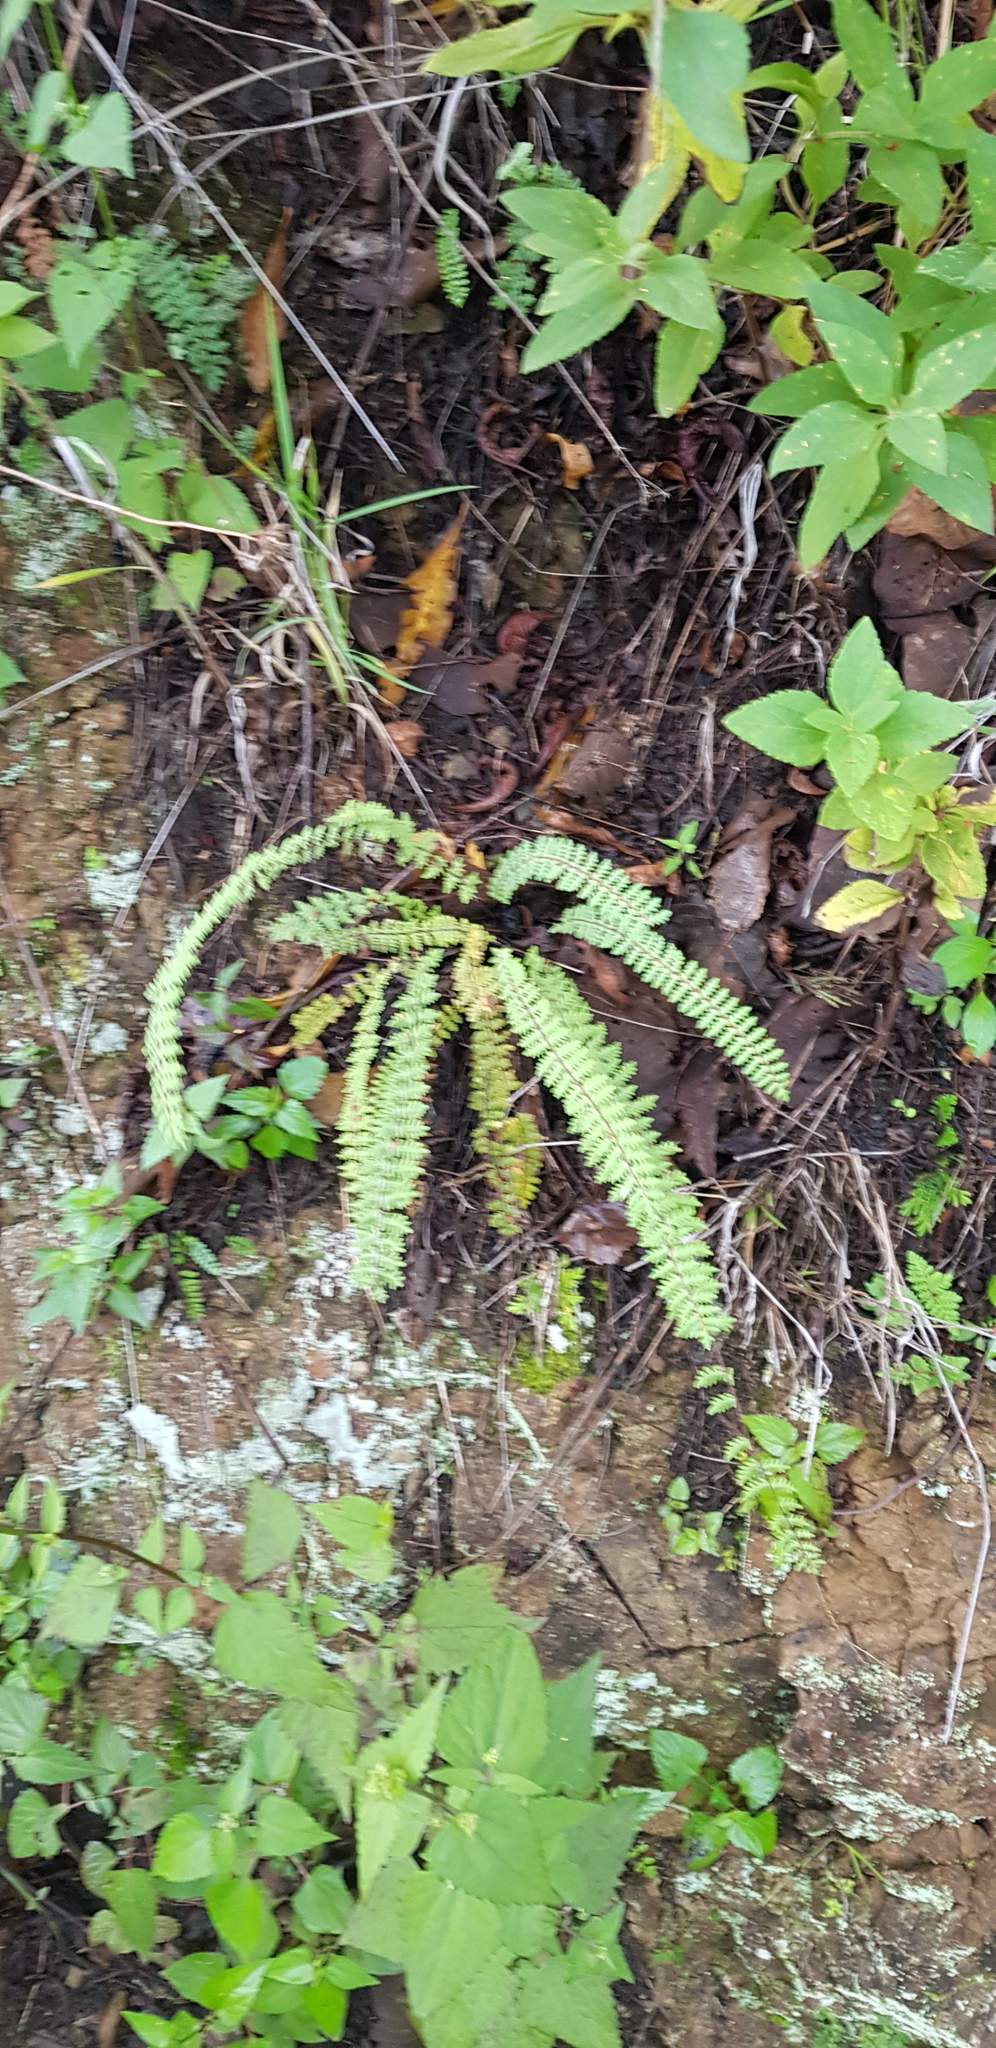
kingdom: Plantae
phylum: Tracheophyta
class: Polypodiopsida
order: Polypodiales
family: Pteridaceae
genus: Myriopteris
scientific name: Myriopteris aurea
